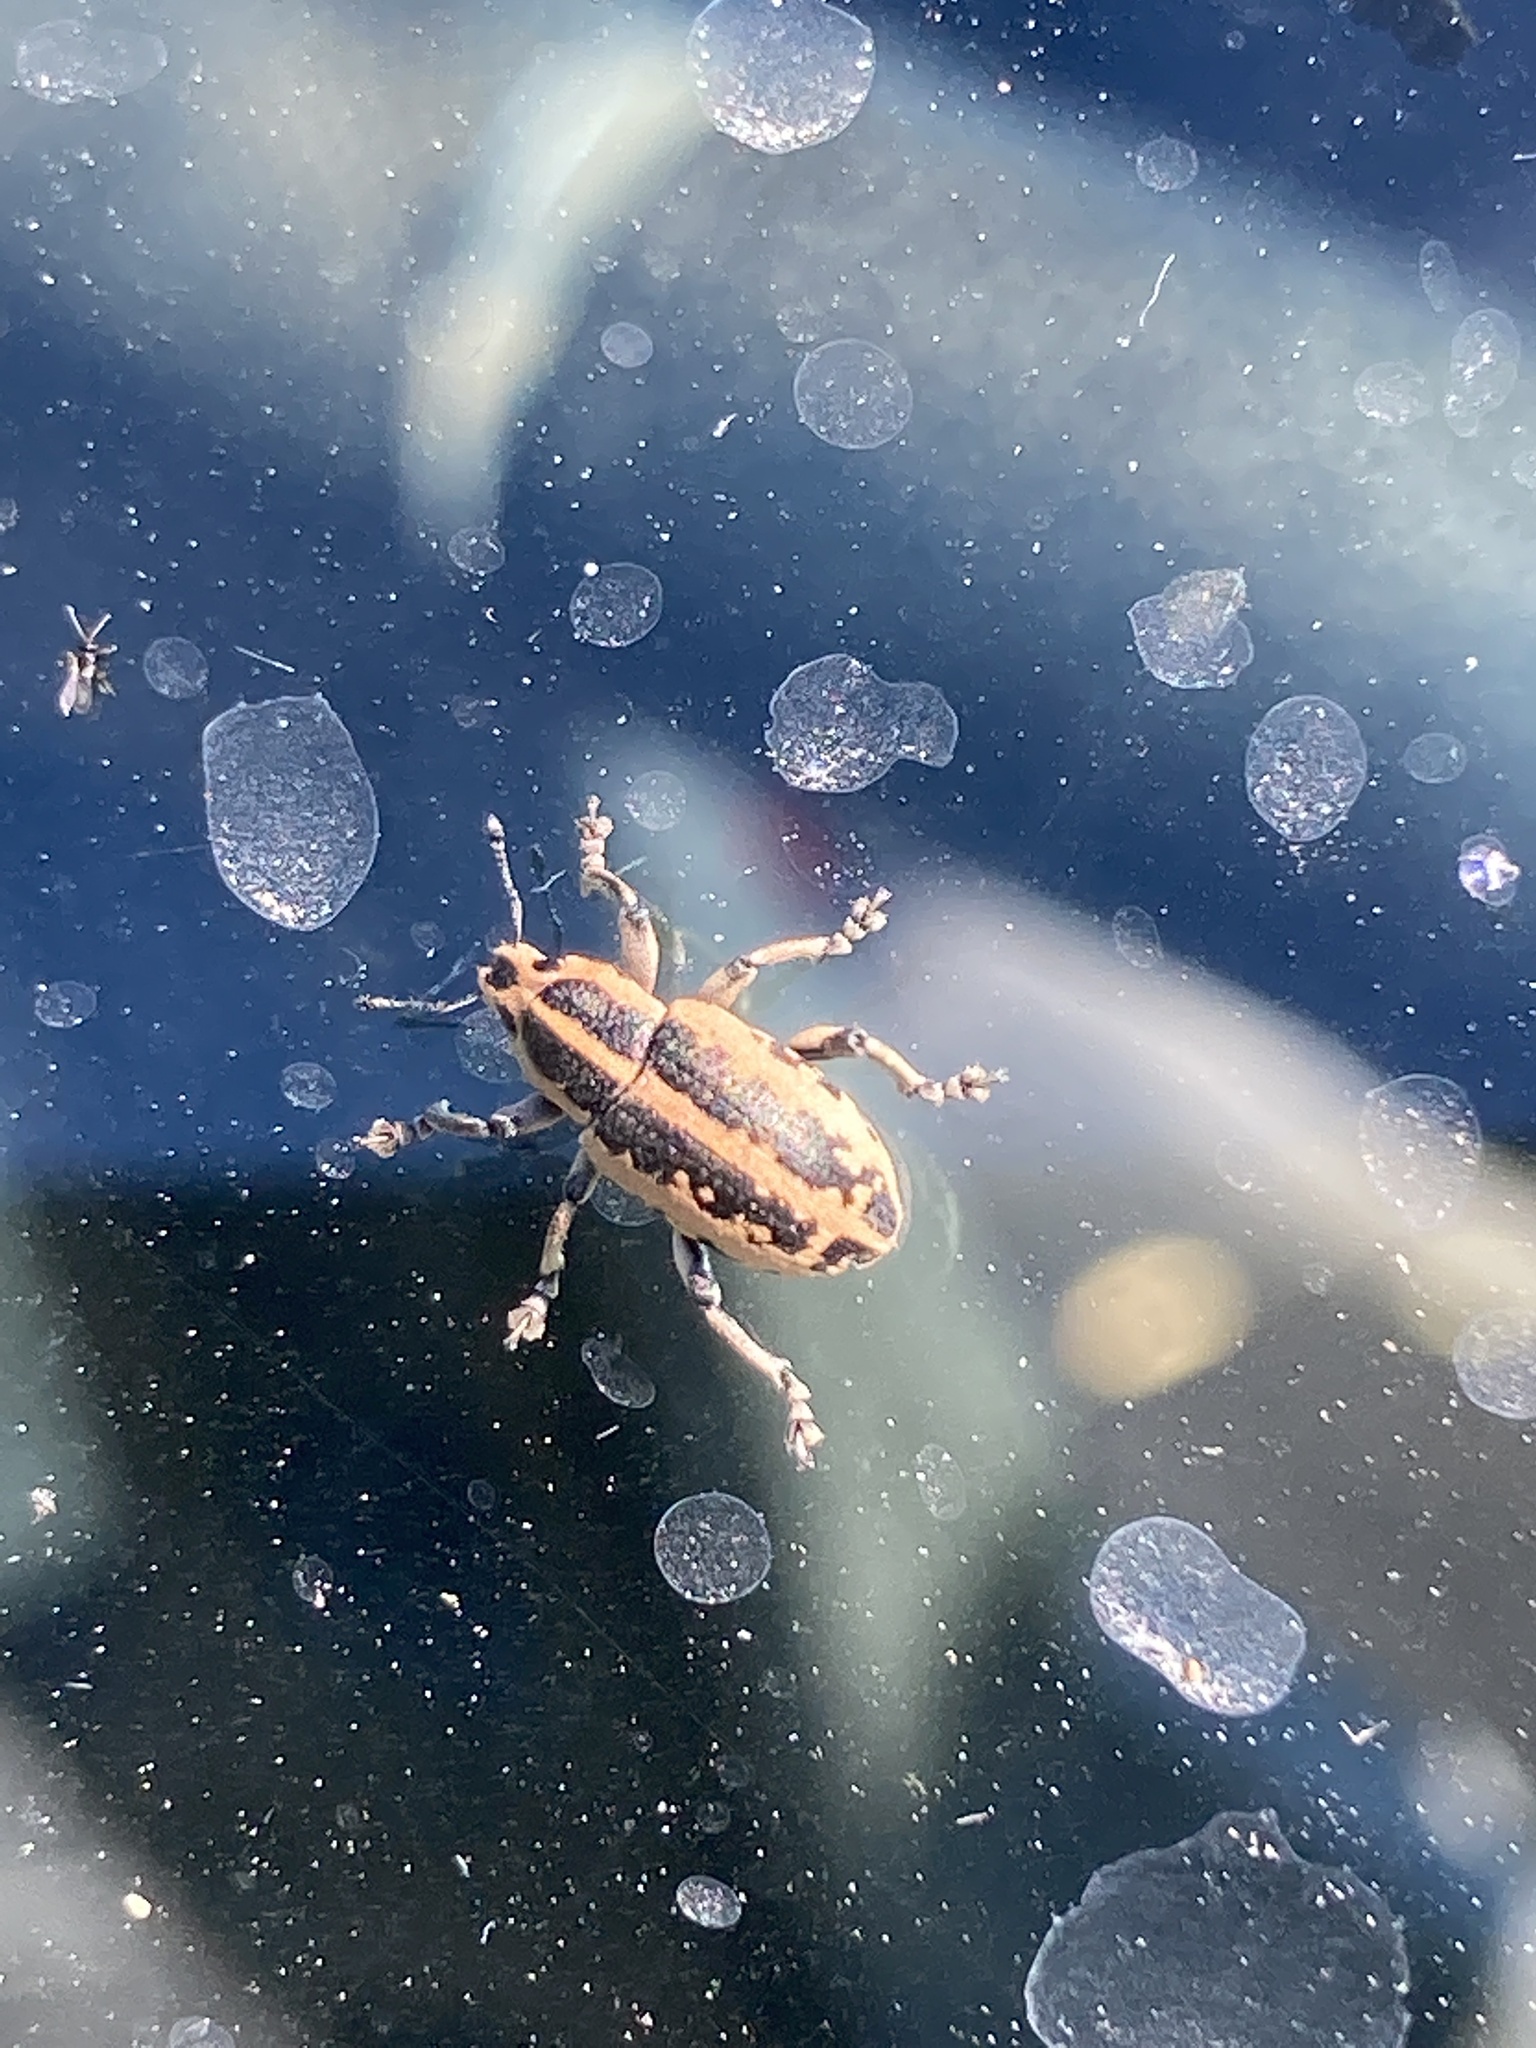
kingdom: Animalia
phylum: Arthropoda
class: Insecta
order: Coleoptera
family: Curculionidae
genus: Eudiagogus
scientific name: Eudiagogus rosenschoeldi
